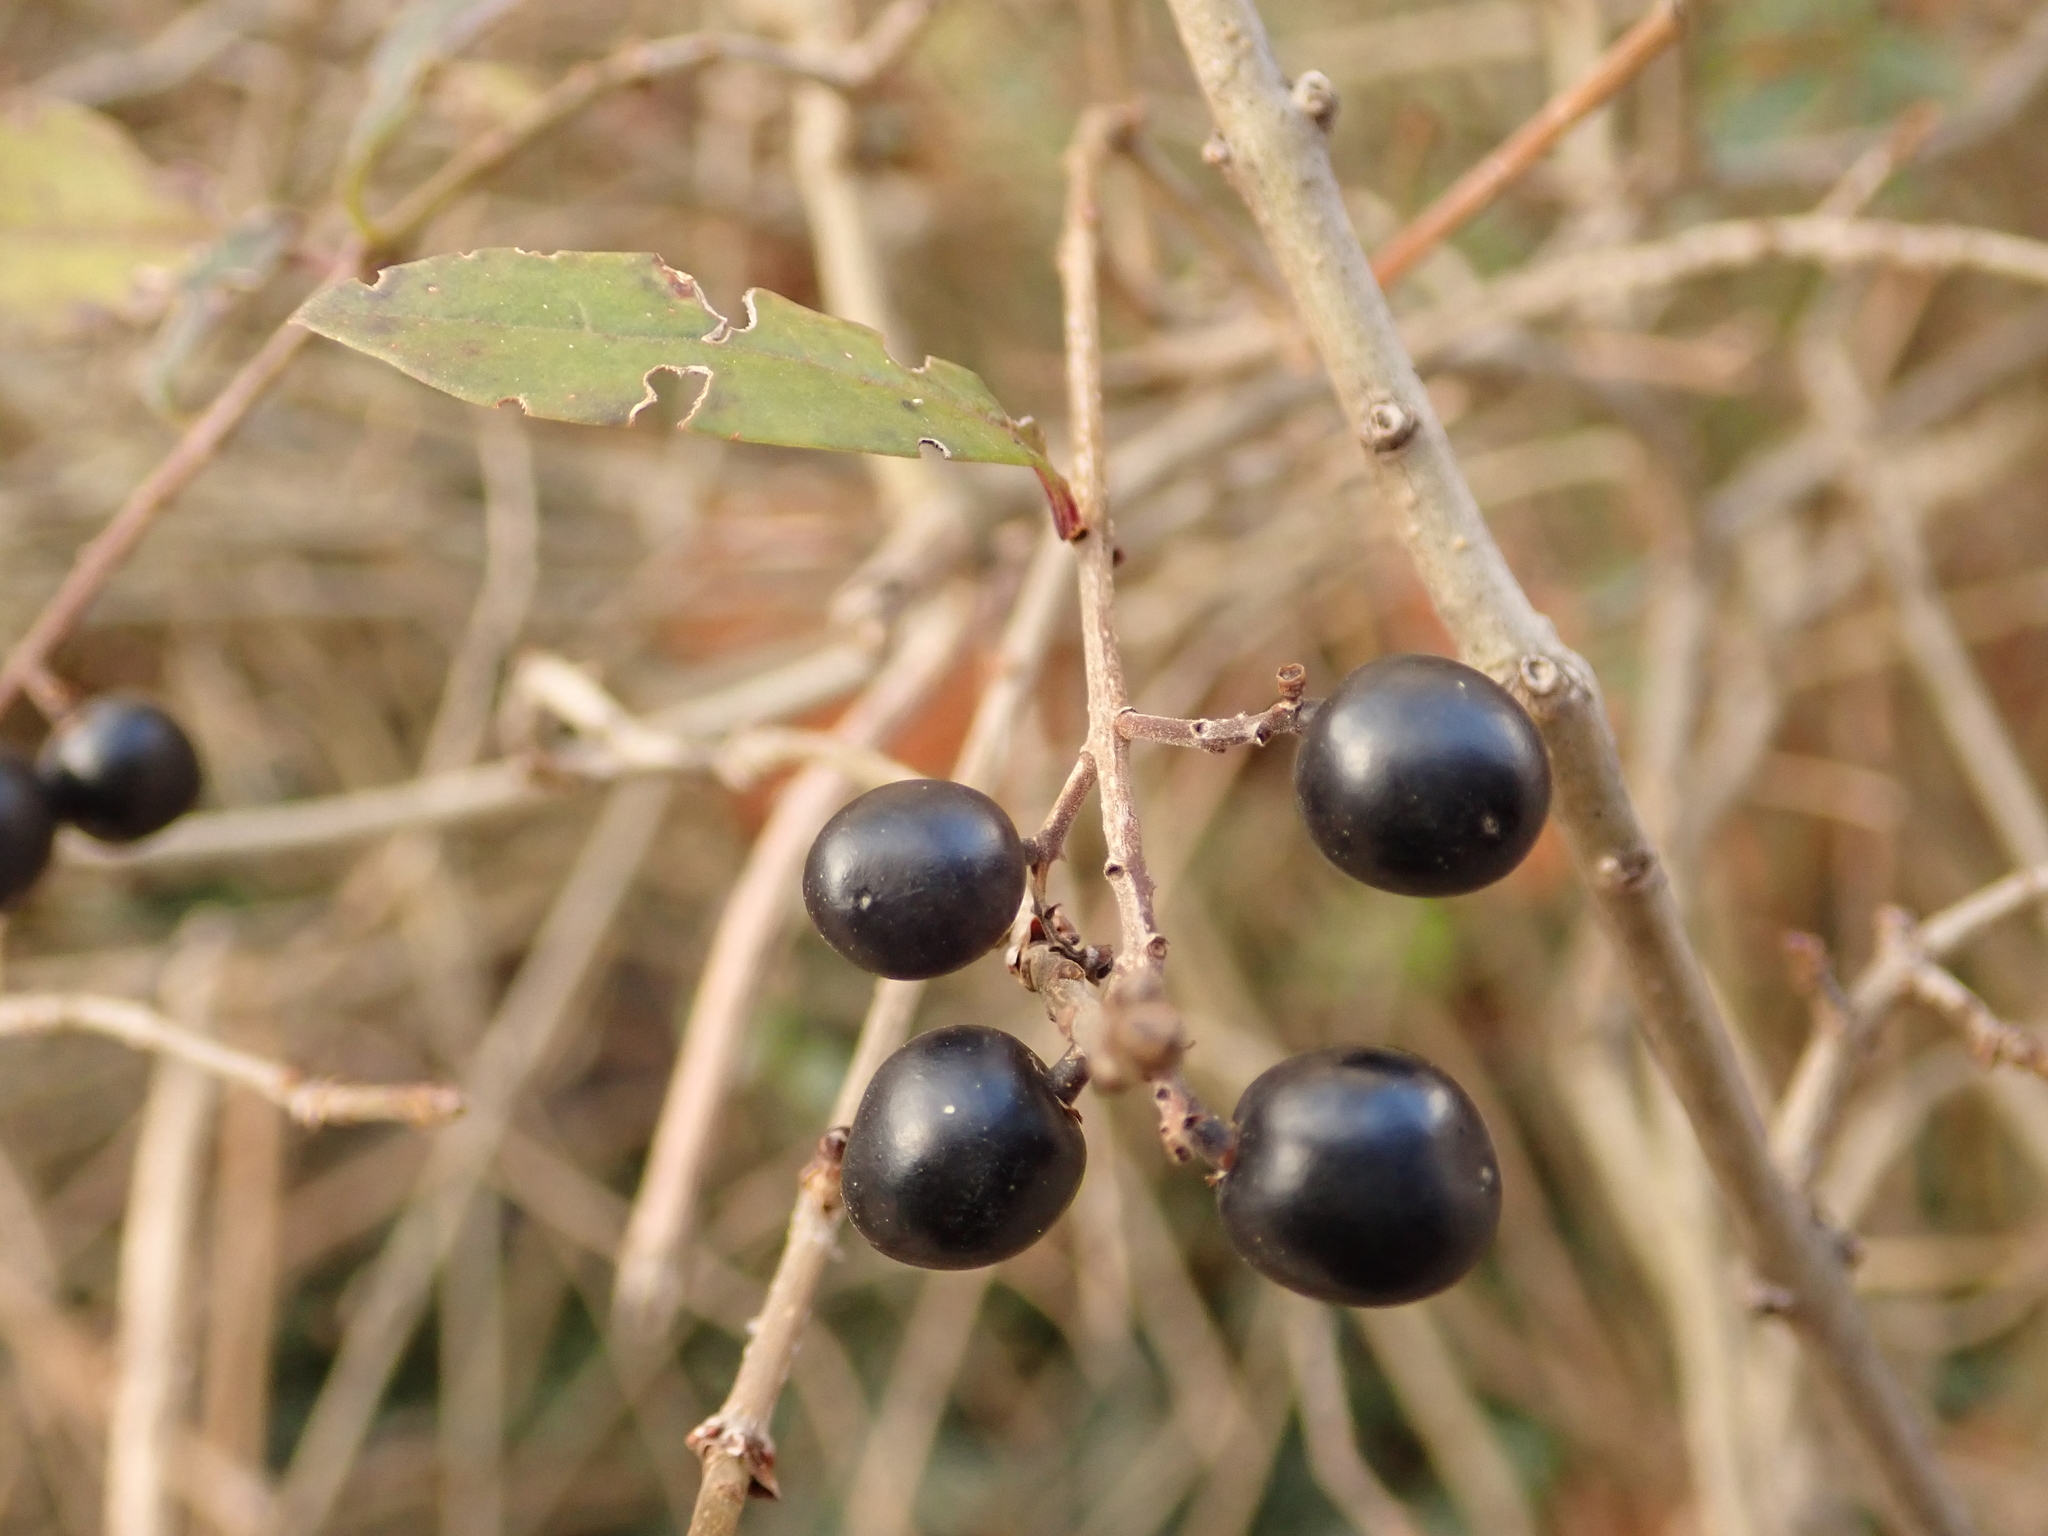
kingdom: Plantae
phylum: Tracheophyta
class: Magnoliopsida
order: Lamiales
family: Oleaceae
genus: Ligustrum
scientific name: Ligustrum vulgare
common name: Wild privet
